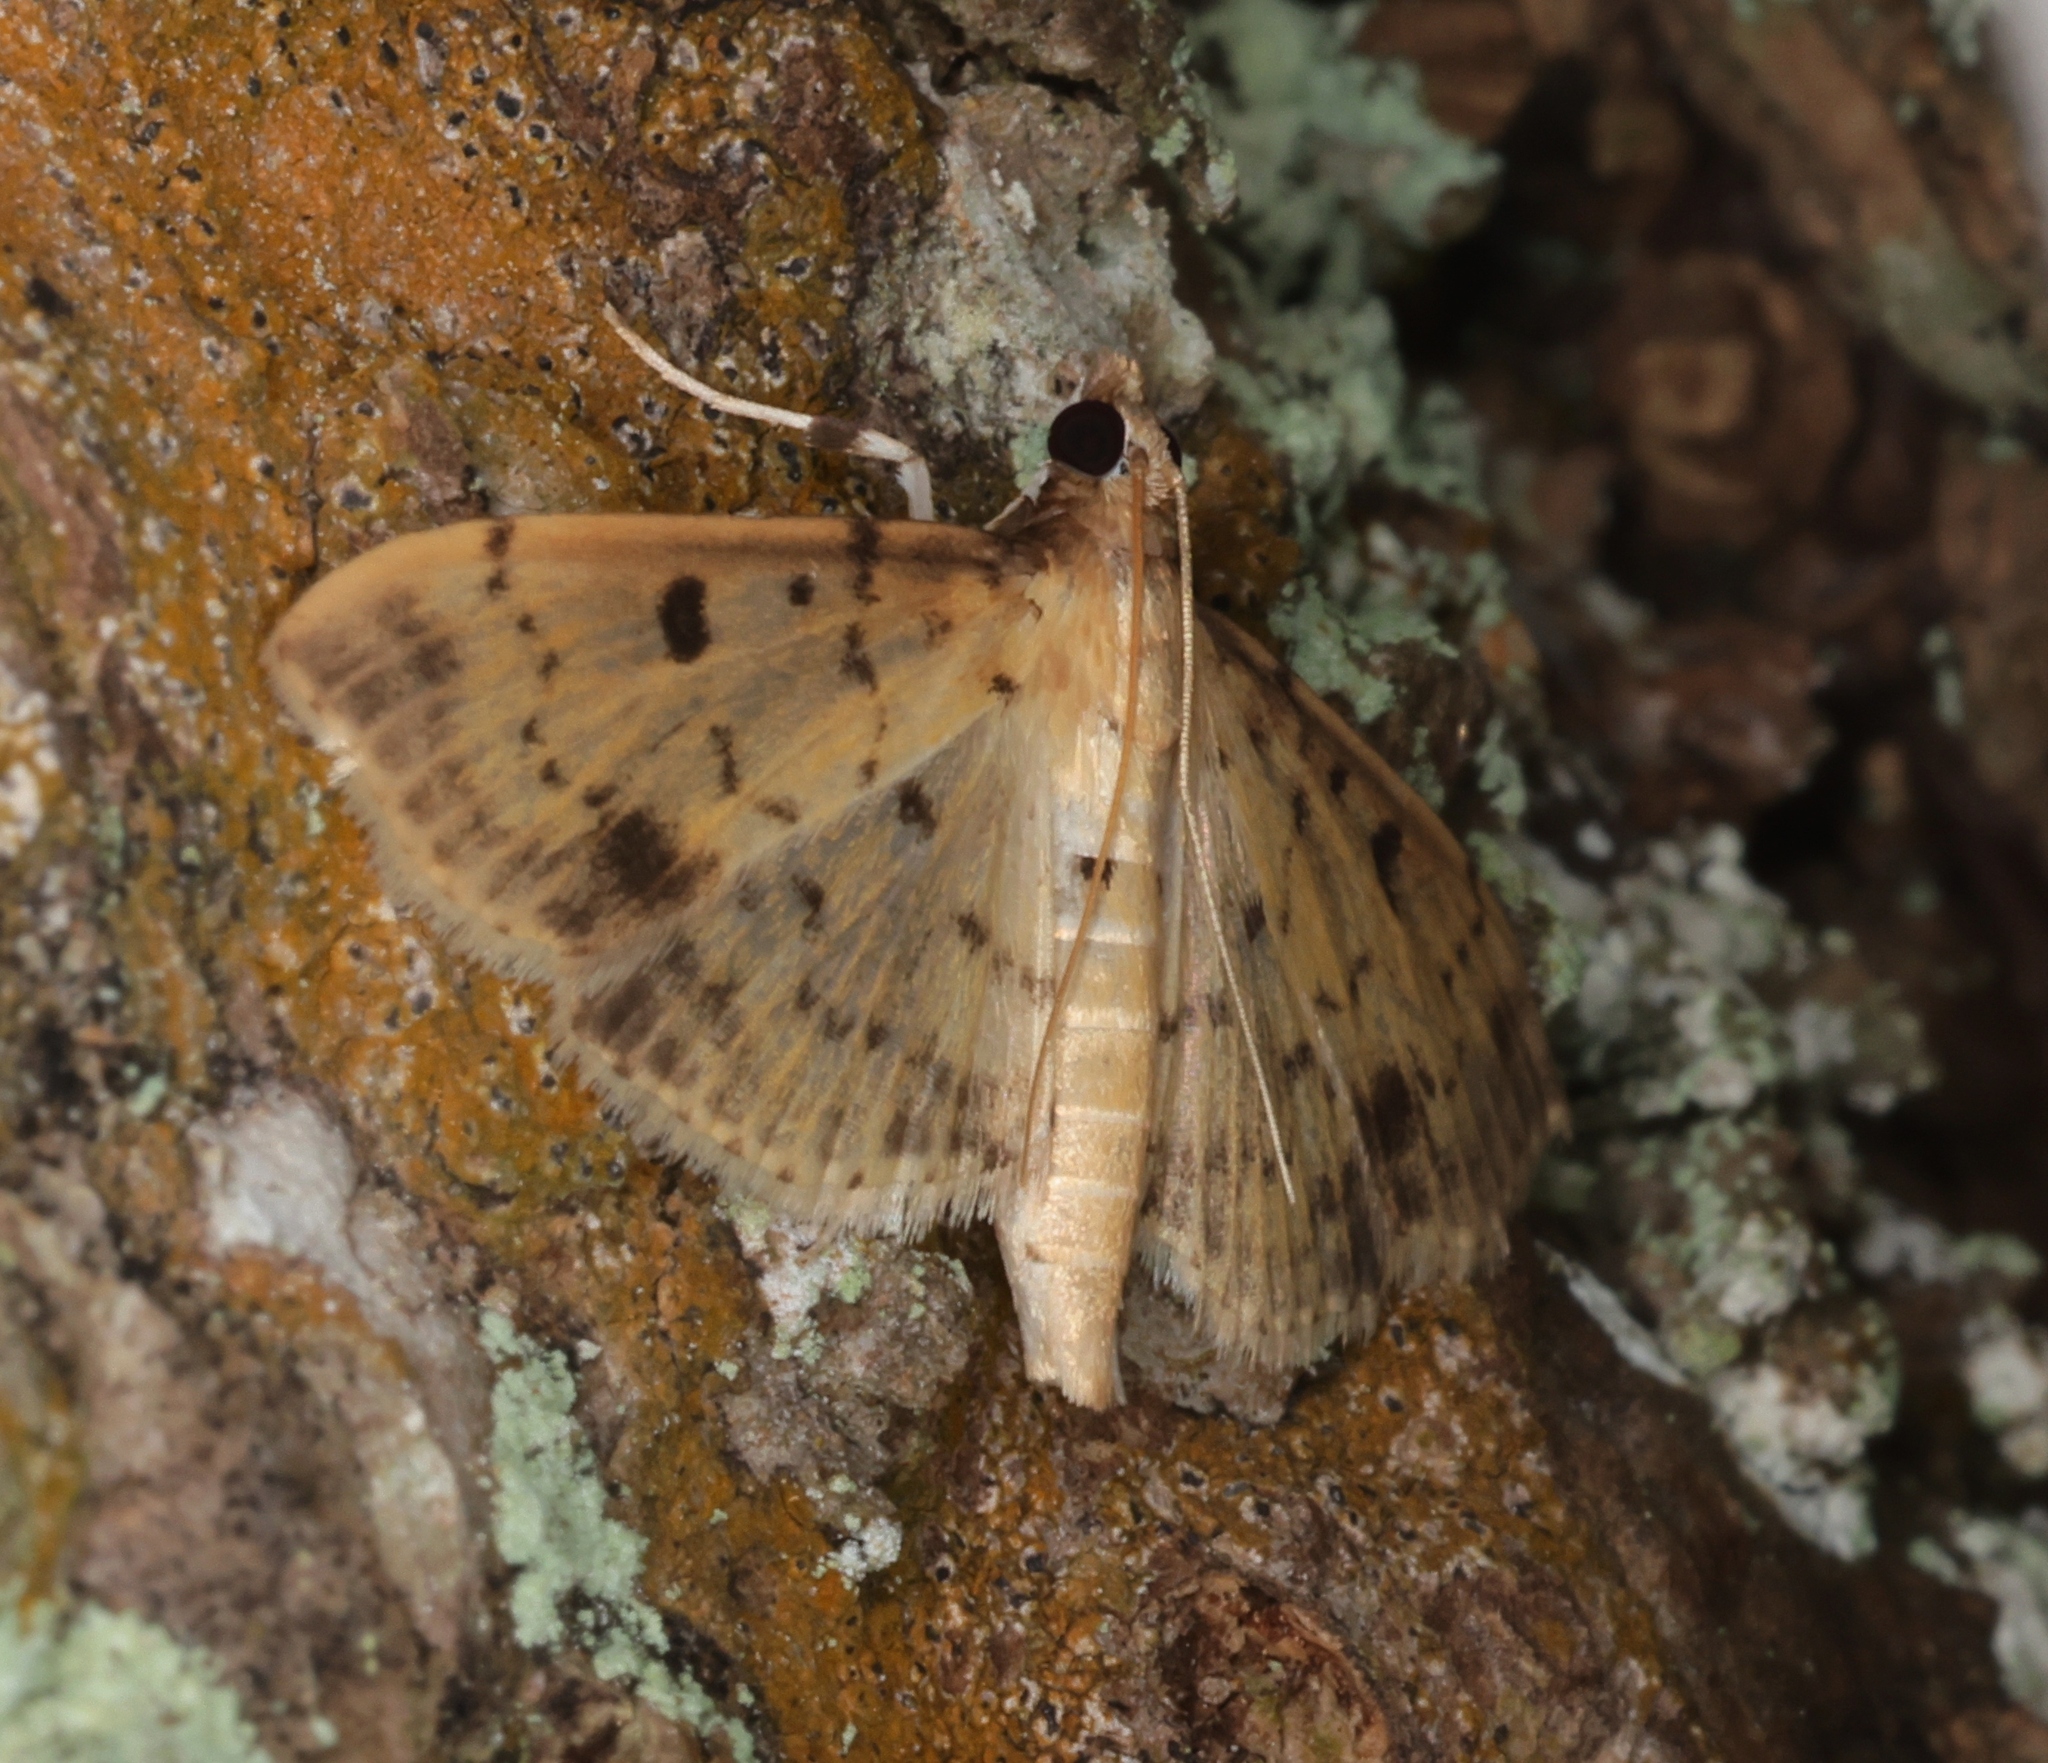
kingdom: Animalia
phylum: Arthropoda
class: Insecta
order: Lepidoptera
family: Crambidae
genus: Herpetogramma
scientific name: Herpetogramma cynaralis
